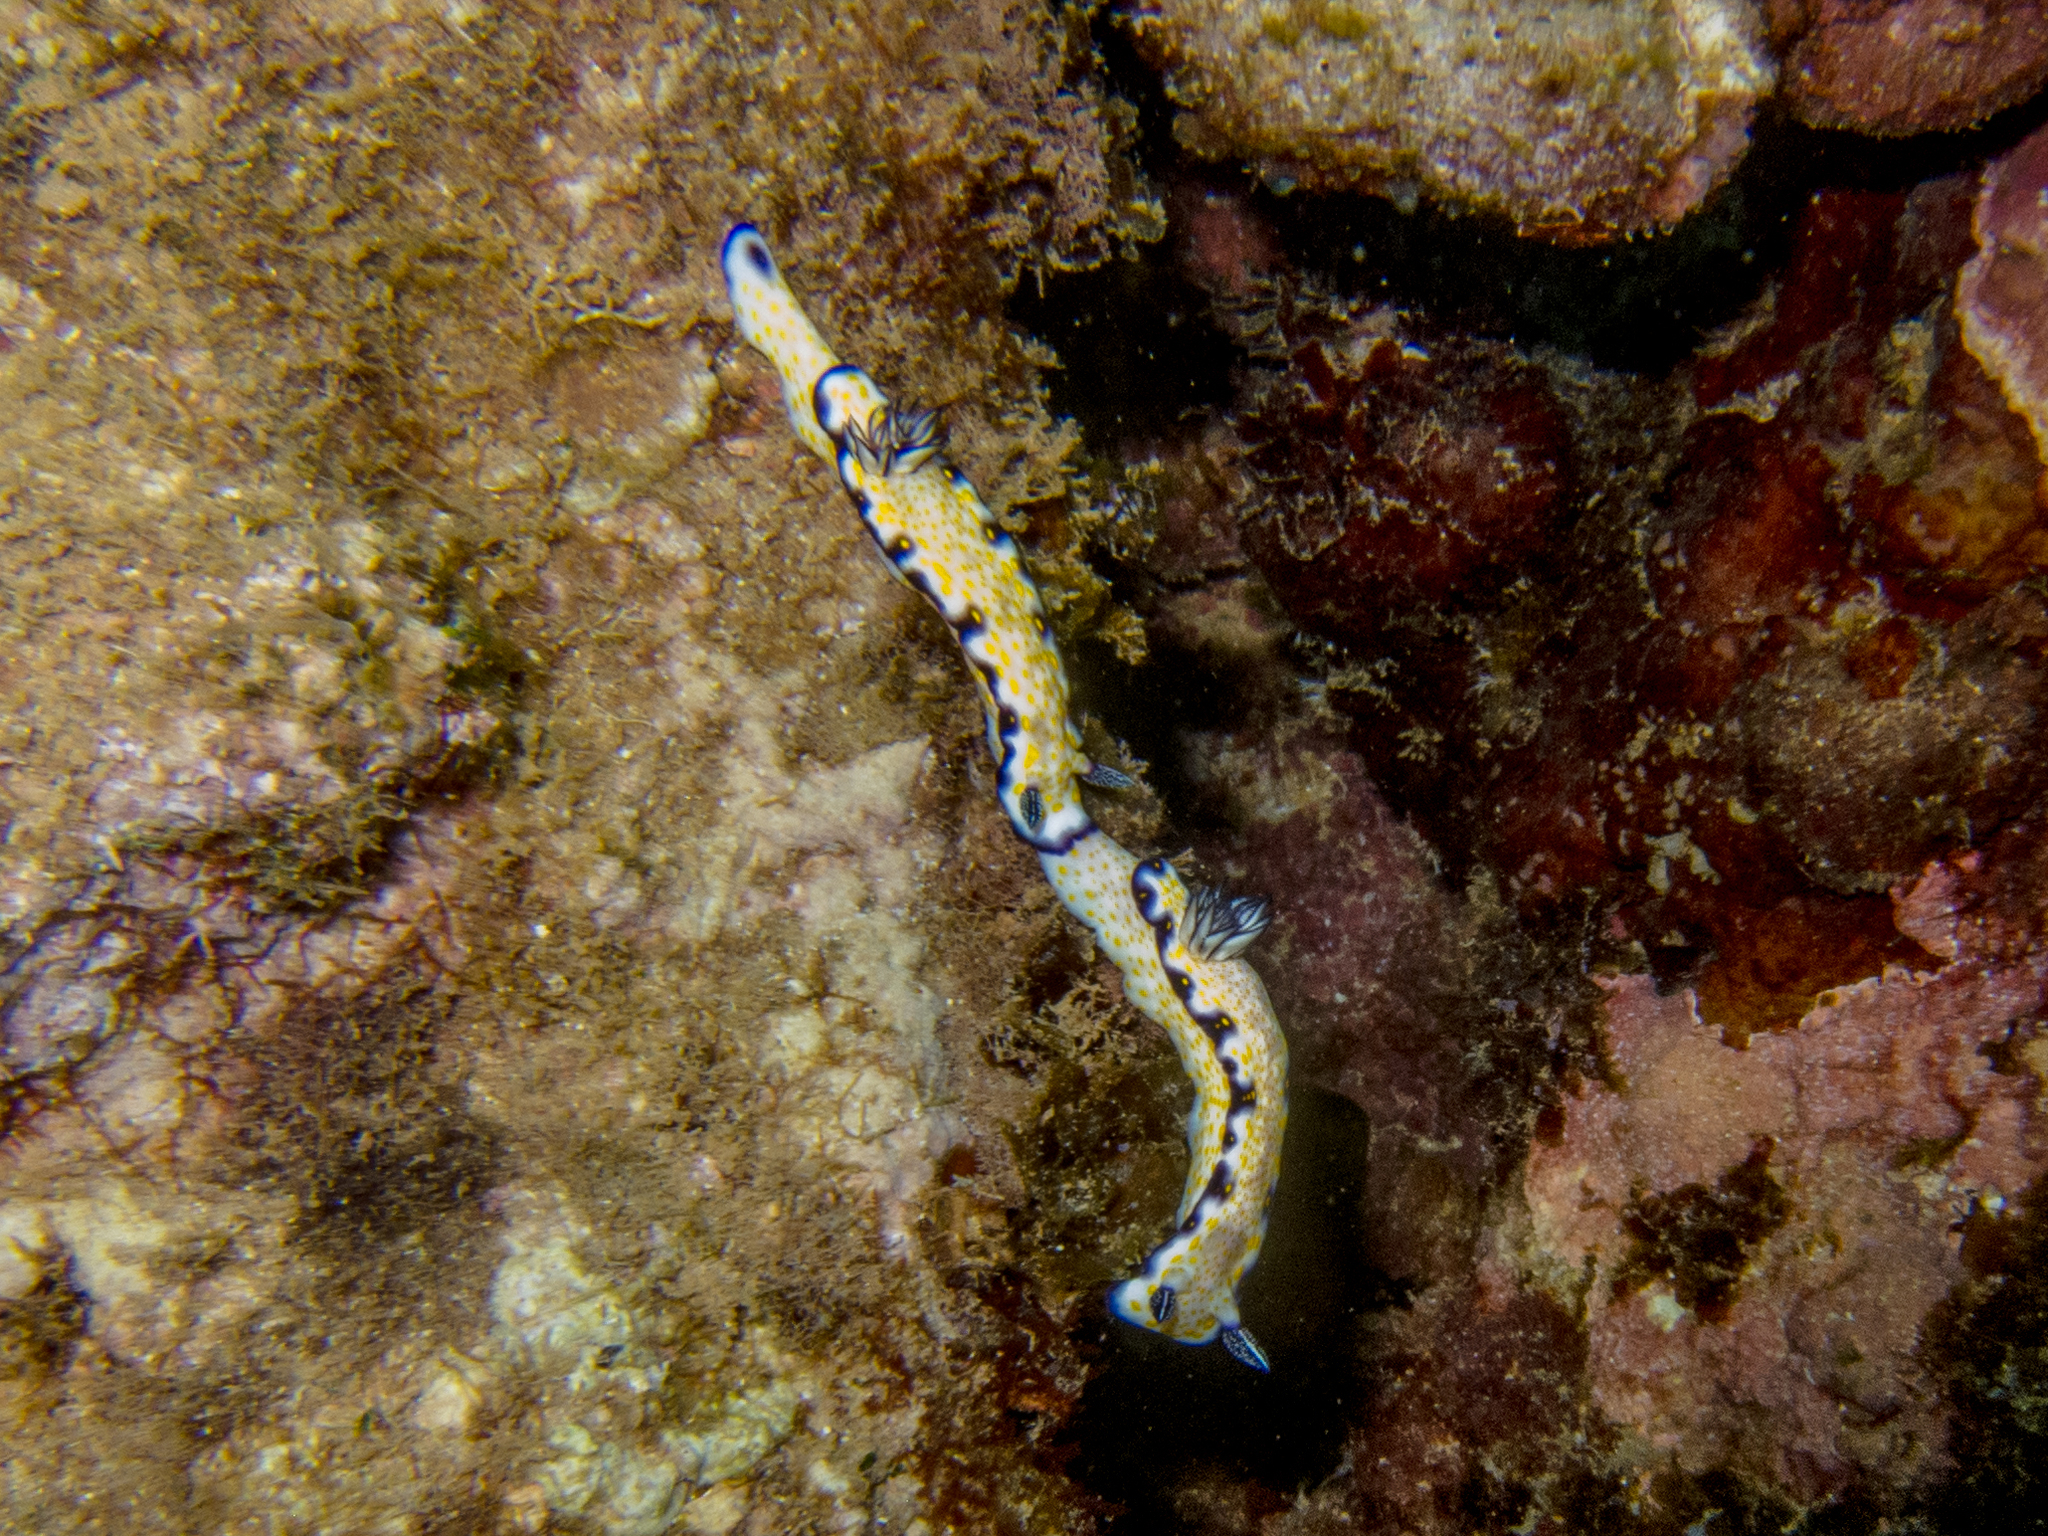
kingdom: Animalia
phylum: Mollusca
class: Gastropoda
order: Nudibranchia
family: Chromodorididae
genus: Hypselodoris
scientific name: Hypselodoris imperialis
